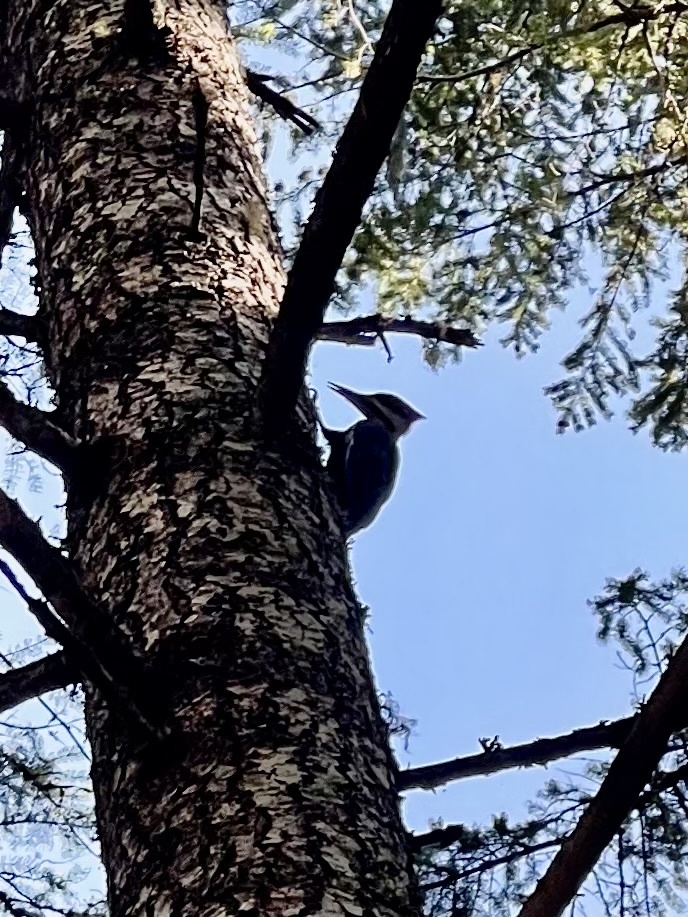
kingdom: Animalia
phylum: Chordata
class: Aves
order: Piciformes
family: Picidae
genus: Dryocopus
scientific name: Dryocopus pileatus
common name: Pileated woodpecker
